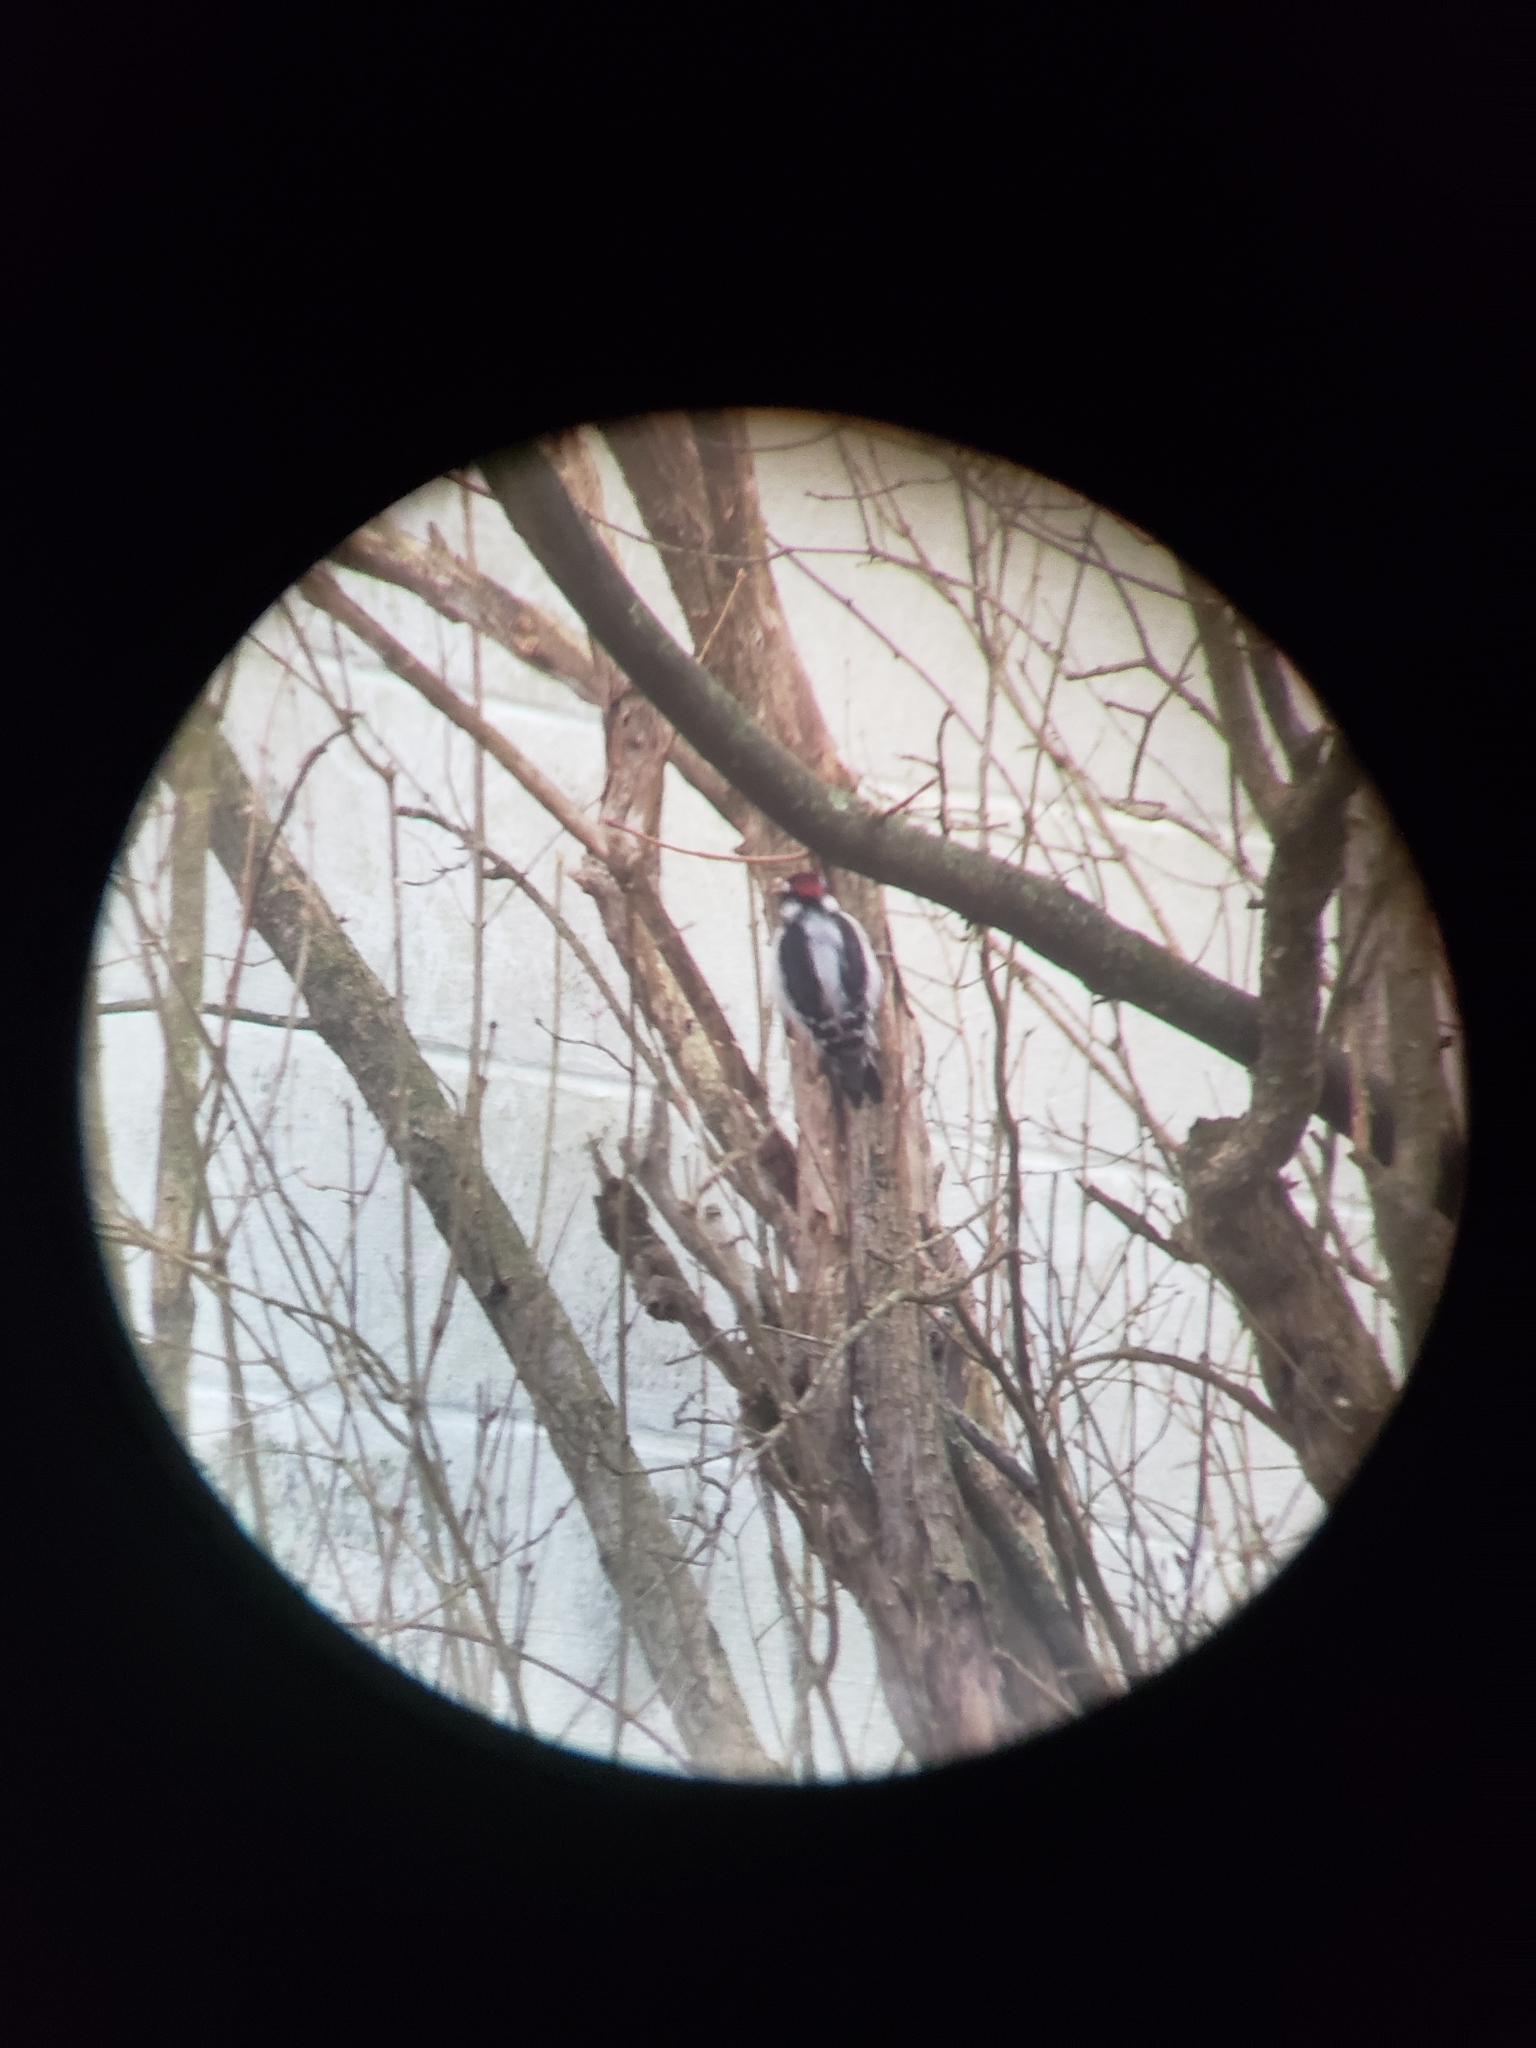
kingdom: Animalia
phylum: Chordata
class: Aves
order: Piciformes
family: Picidae
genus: Dryobates
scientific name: Dryobates pubescens
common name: Downy woodpecker
